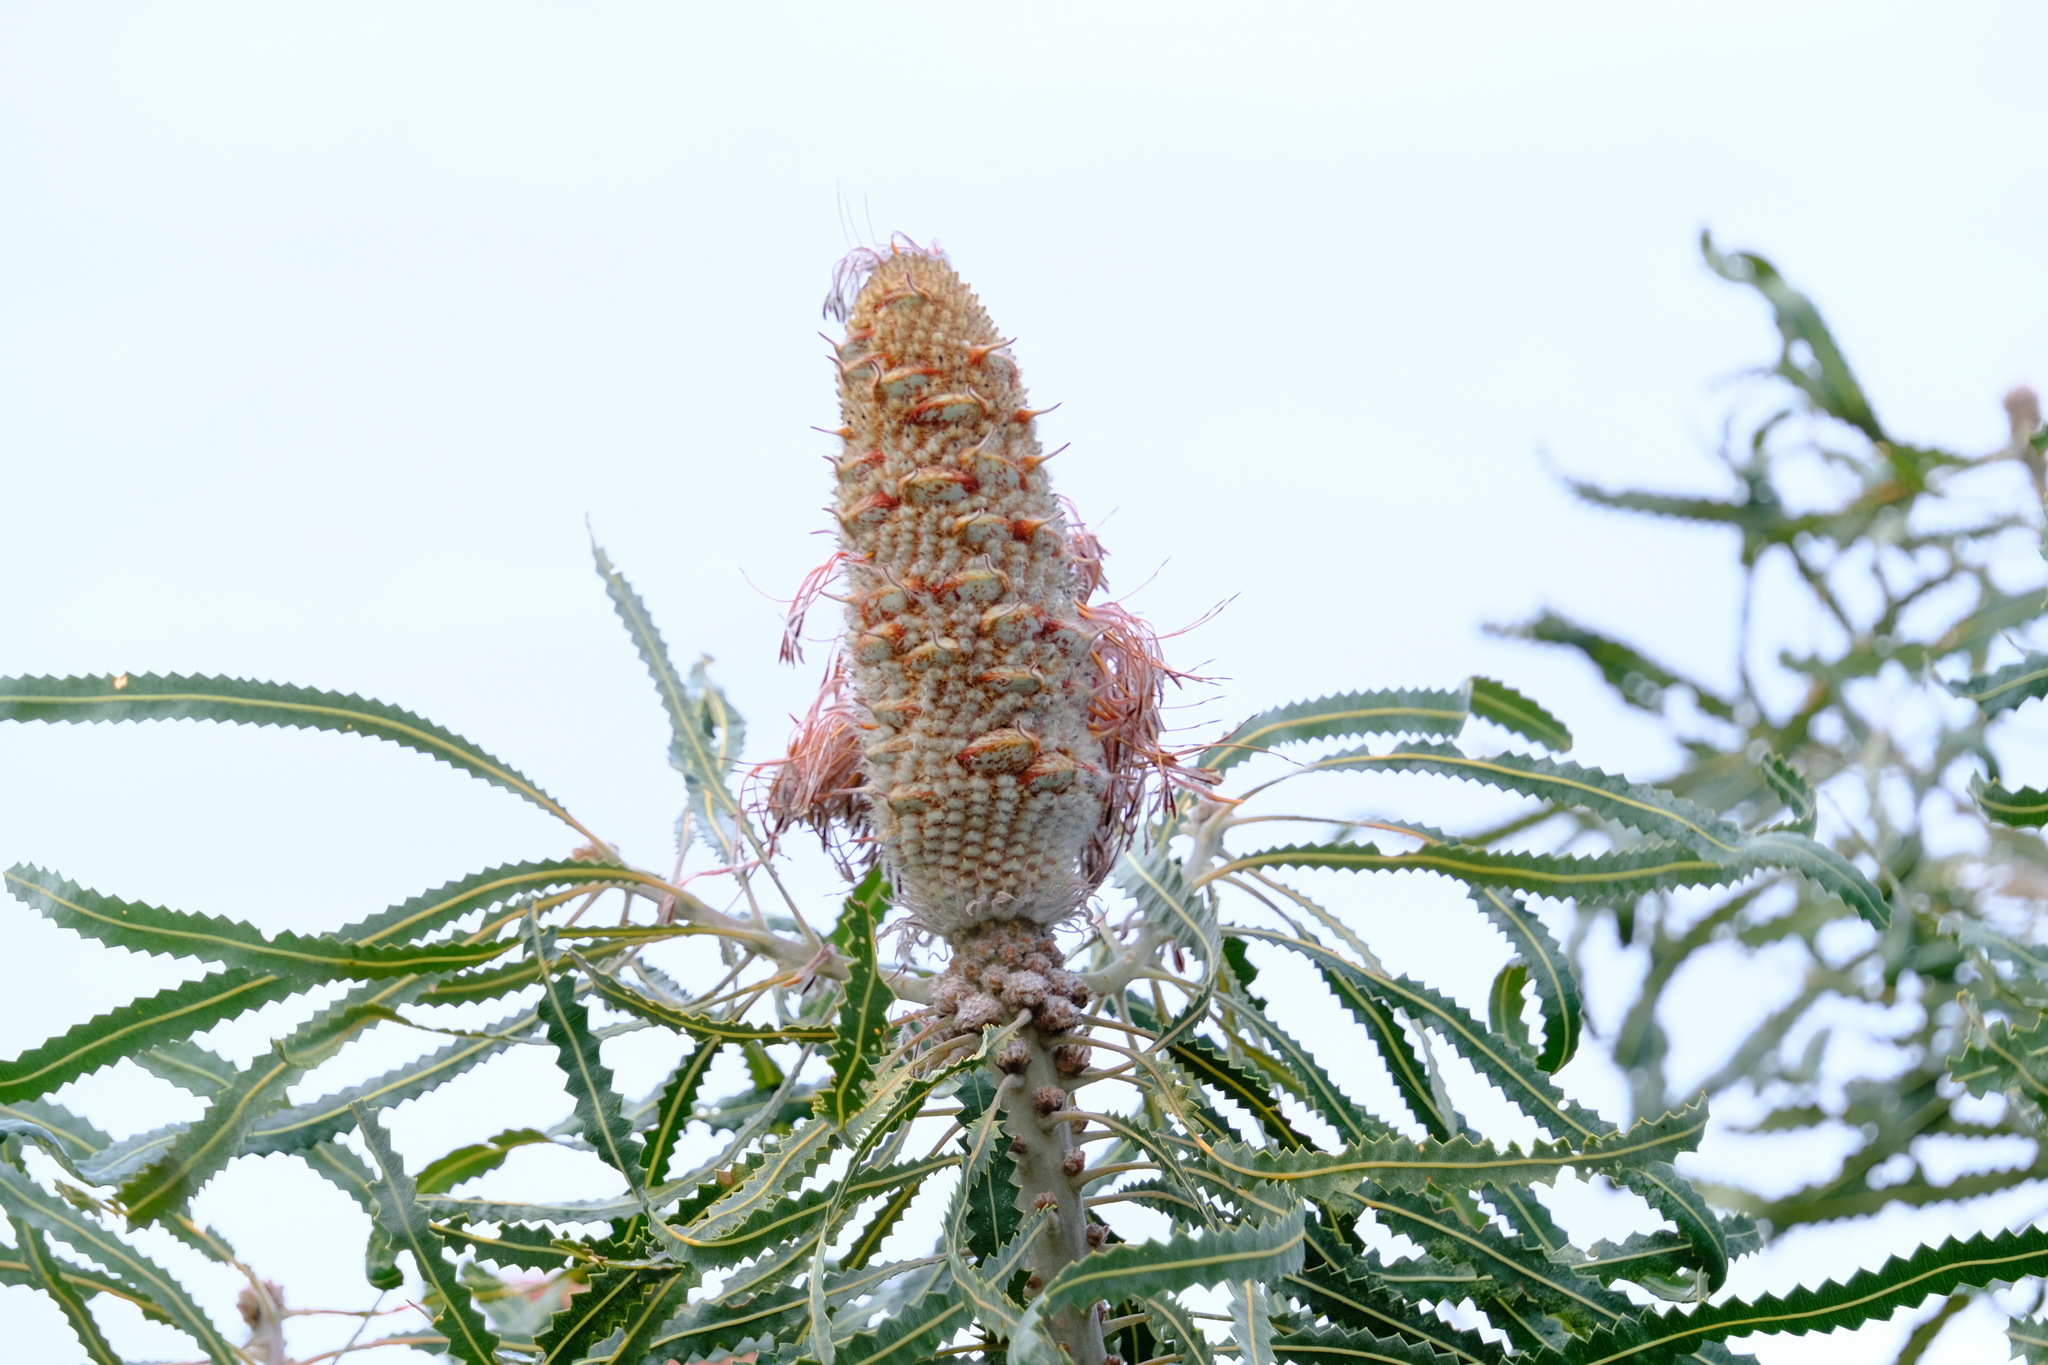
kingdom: Plantae
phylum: Tracheophyta
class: Magnoliopsida
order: Proteales
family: Proteaceae
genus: Banksia
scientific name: Banksia prionotes
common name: Acorn banksia
